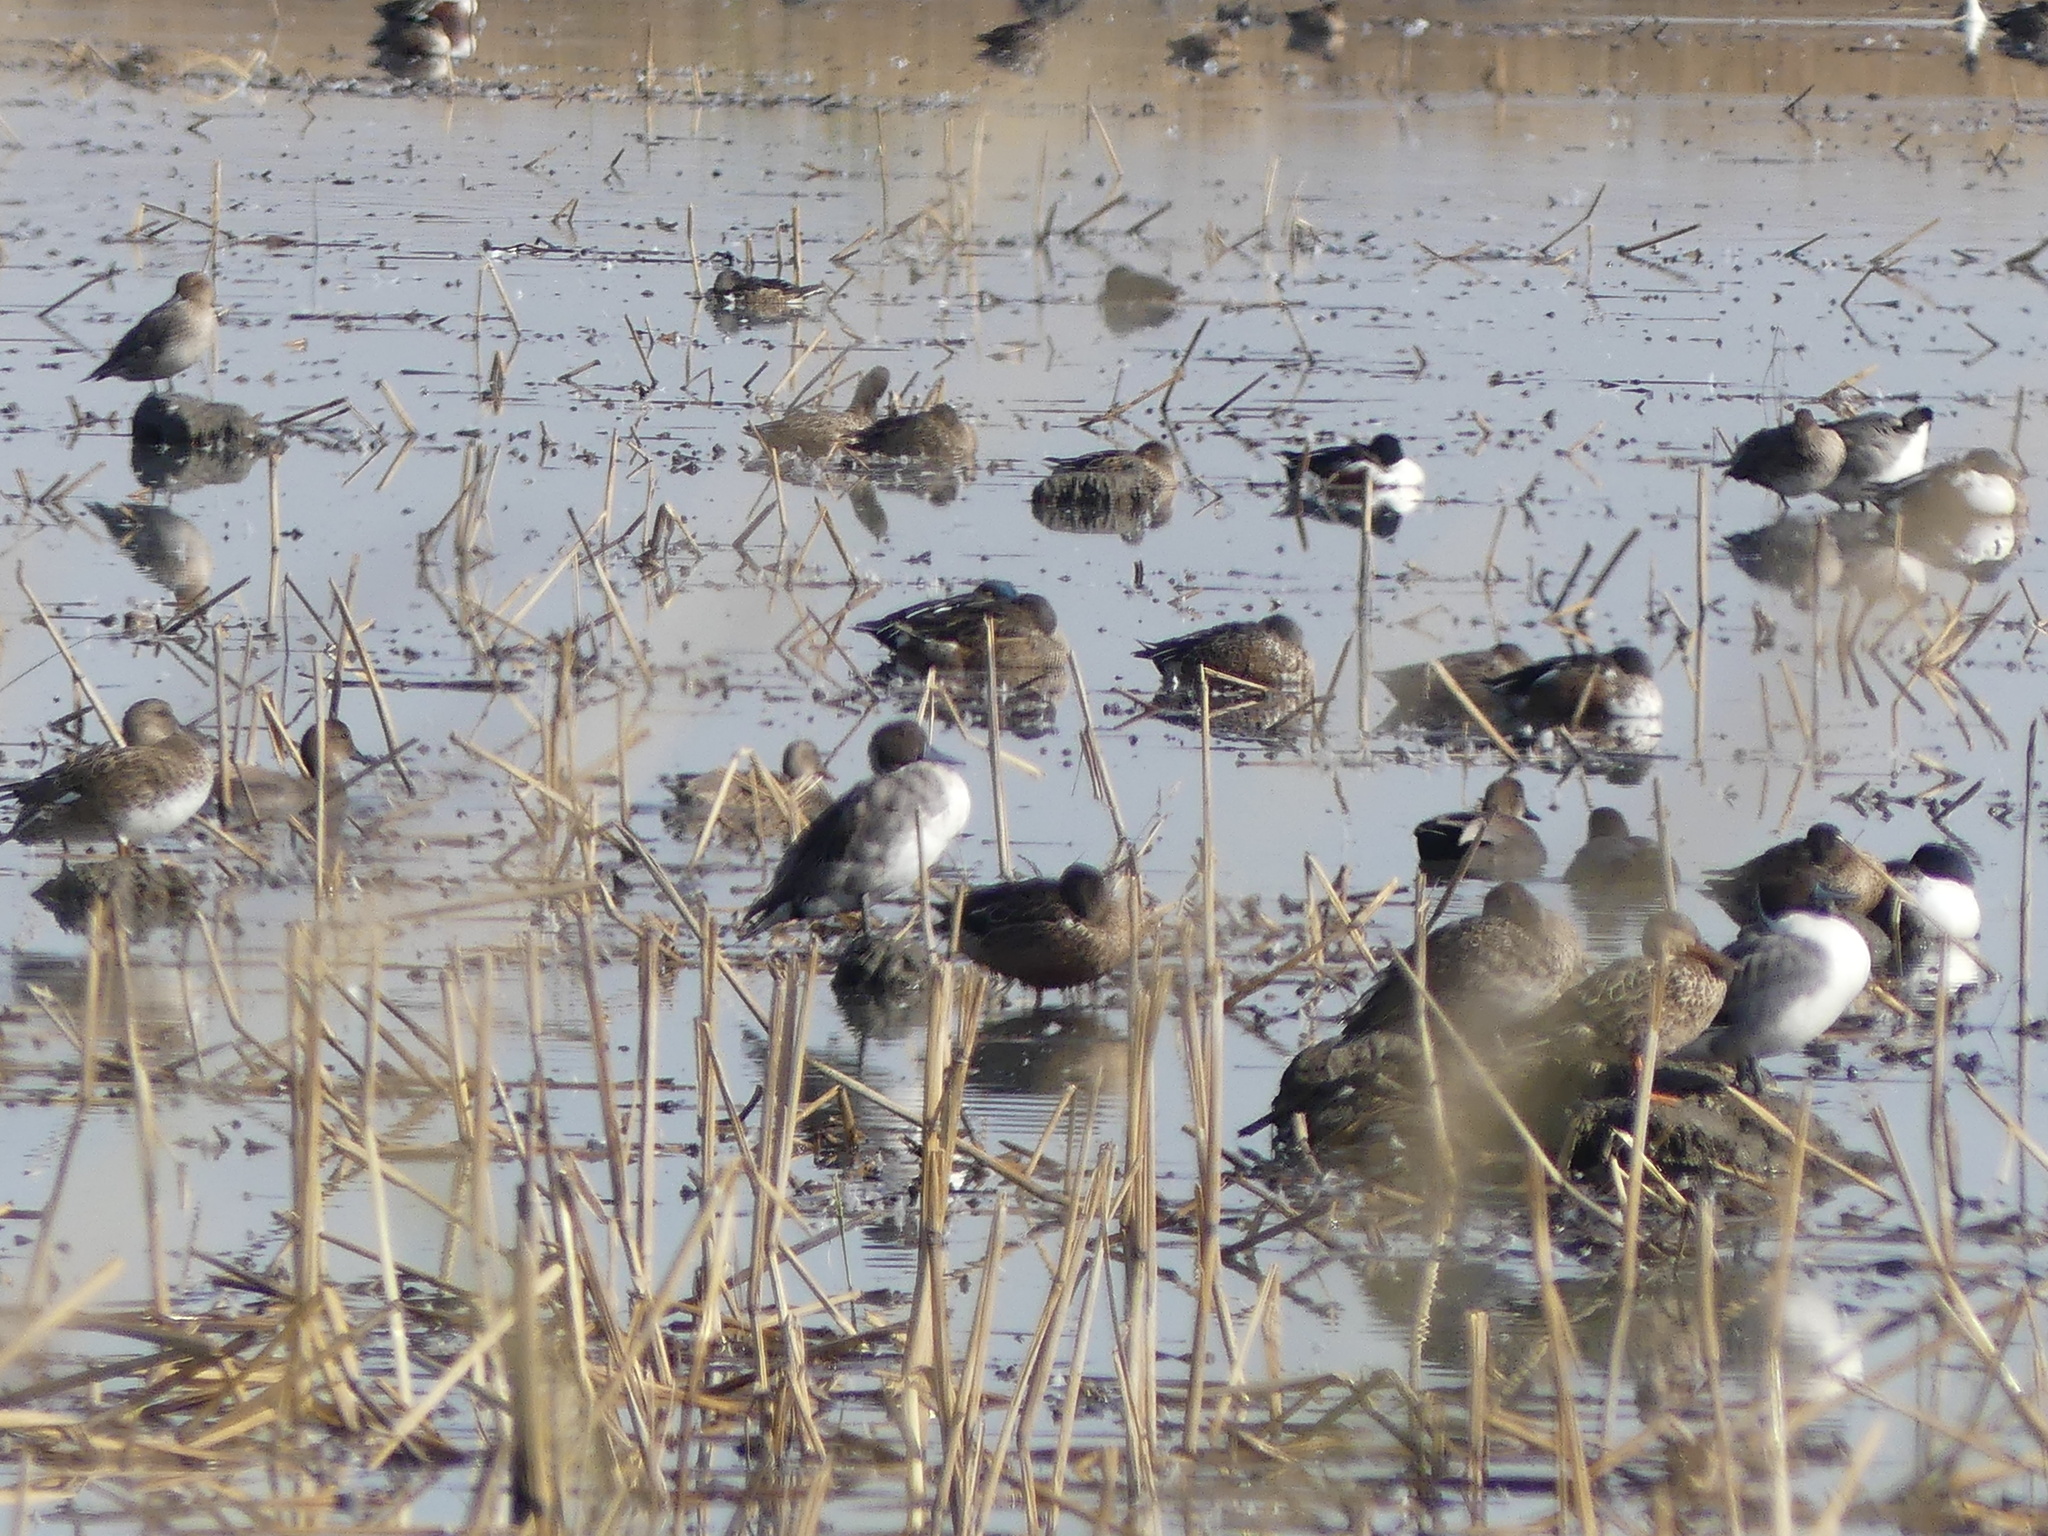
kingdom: Animalia
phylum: Chordata
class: Aves
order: Anseriformes
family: Anatidae
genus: Anas
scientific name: Anas acuta
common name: Northern pintail
